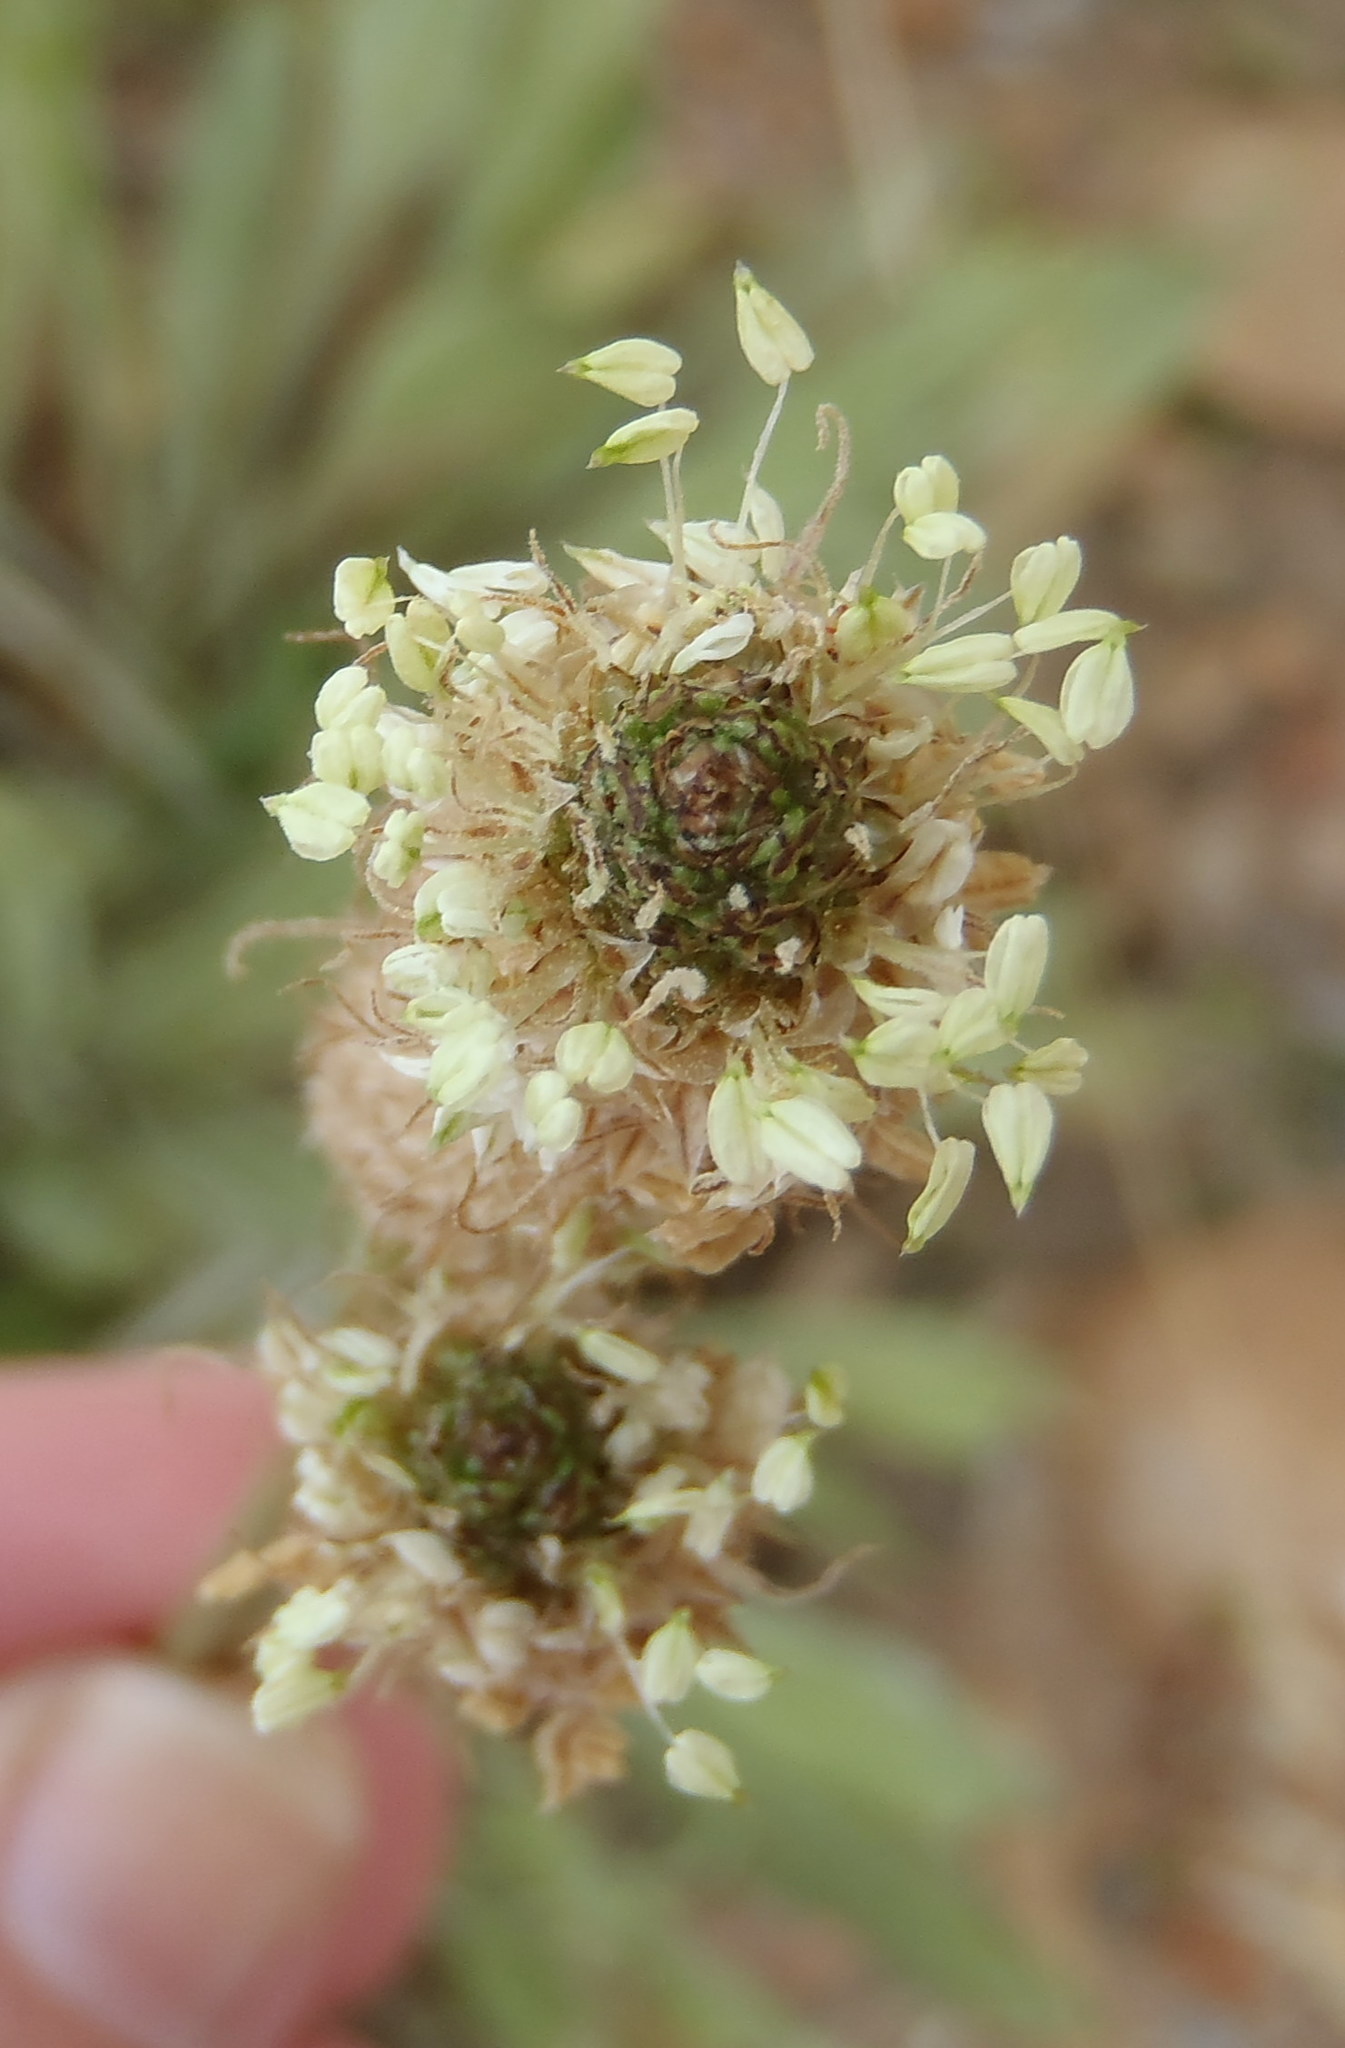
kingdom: Plantae
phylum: Tracheophyta
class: Magnoliopsida
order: Lamiales
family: Plantaginaceae
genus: Plantago
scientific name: Plantago lanceolata
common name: Ribwort plantain
